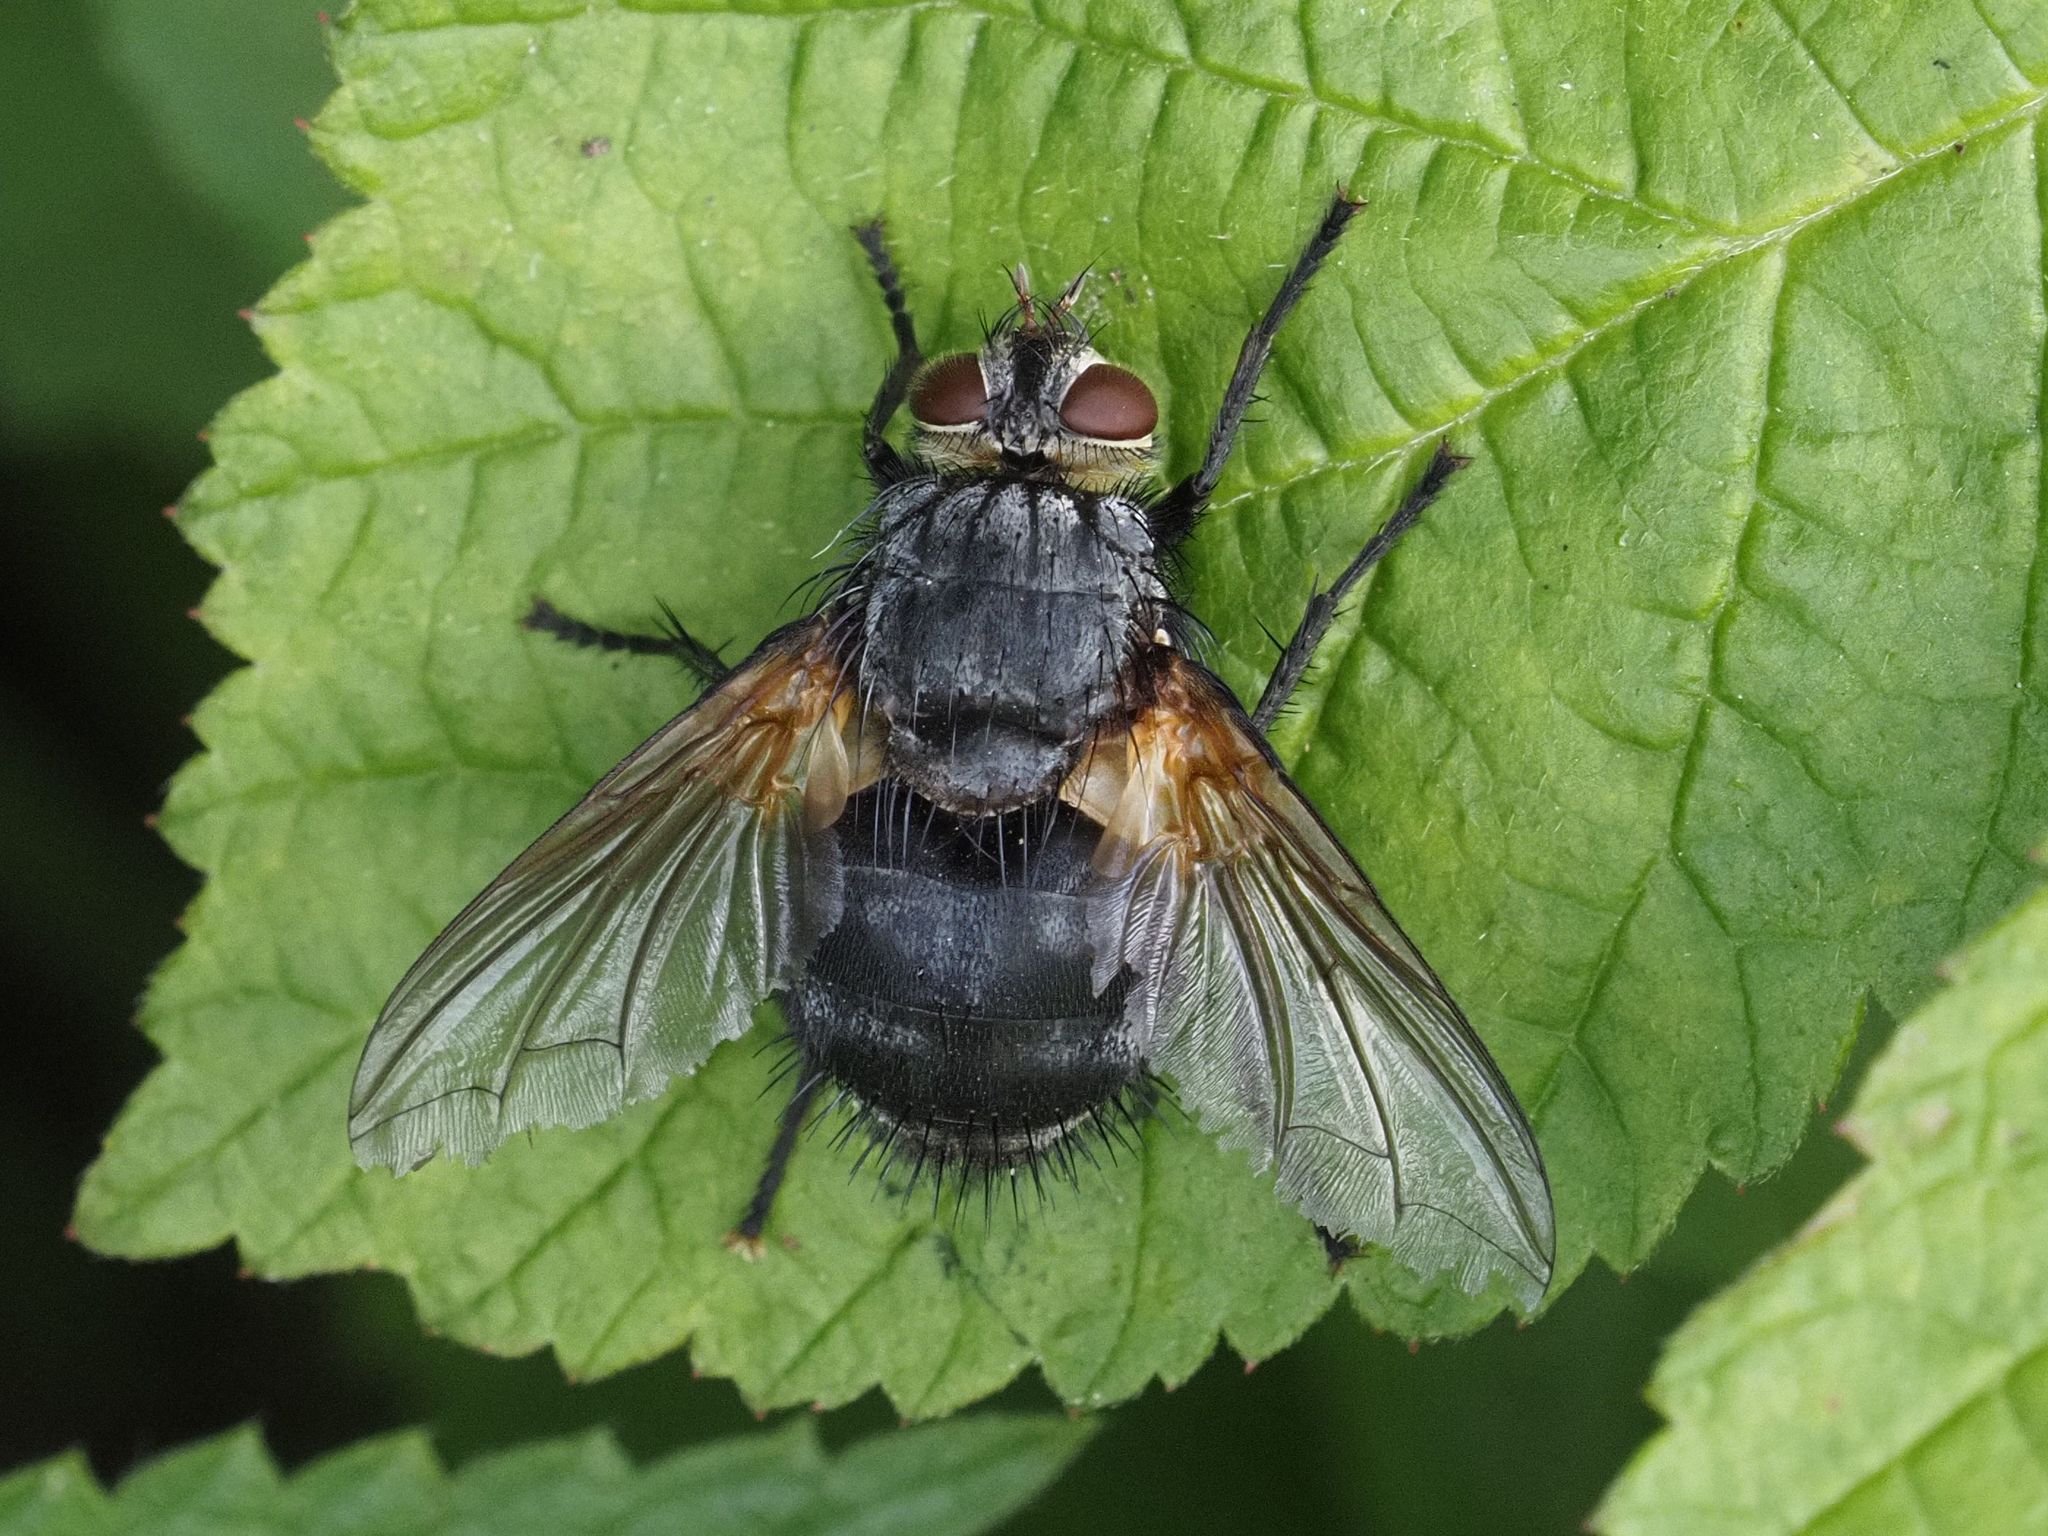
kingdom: Animalia
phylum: Arthropoda
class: Insecta
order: Diptera
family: Tachinidae
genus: Nemoraea
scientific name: Nemoraea pellucida
